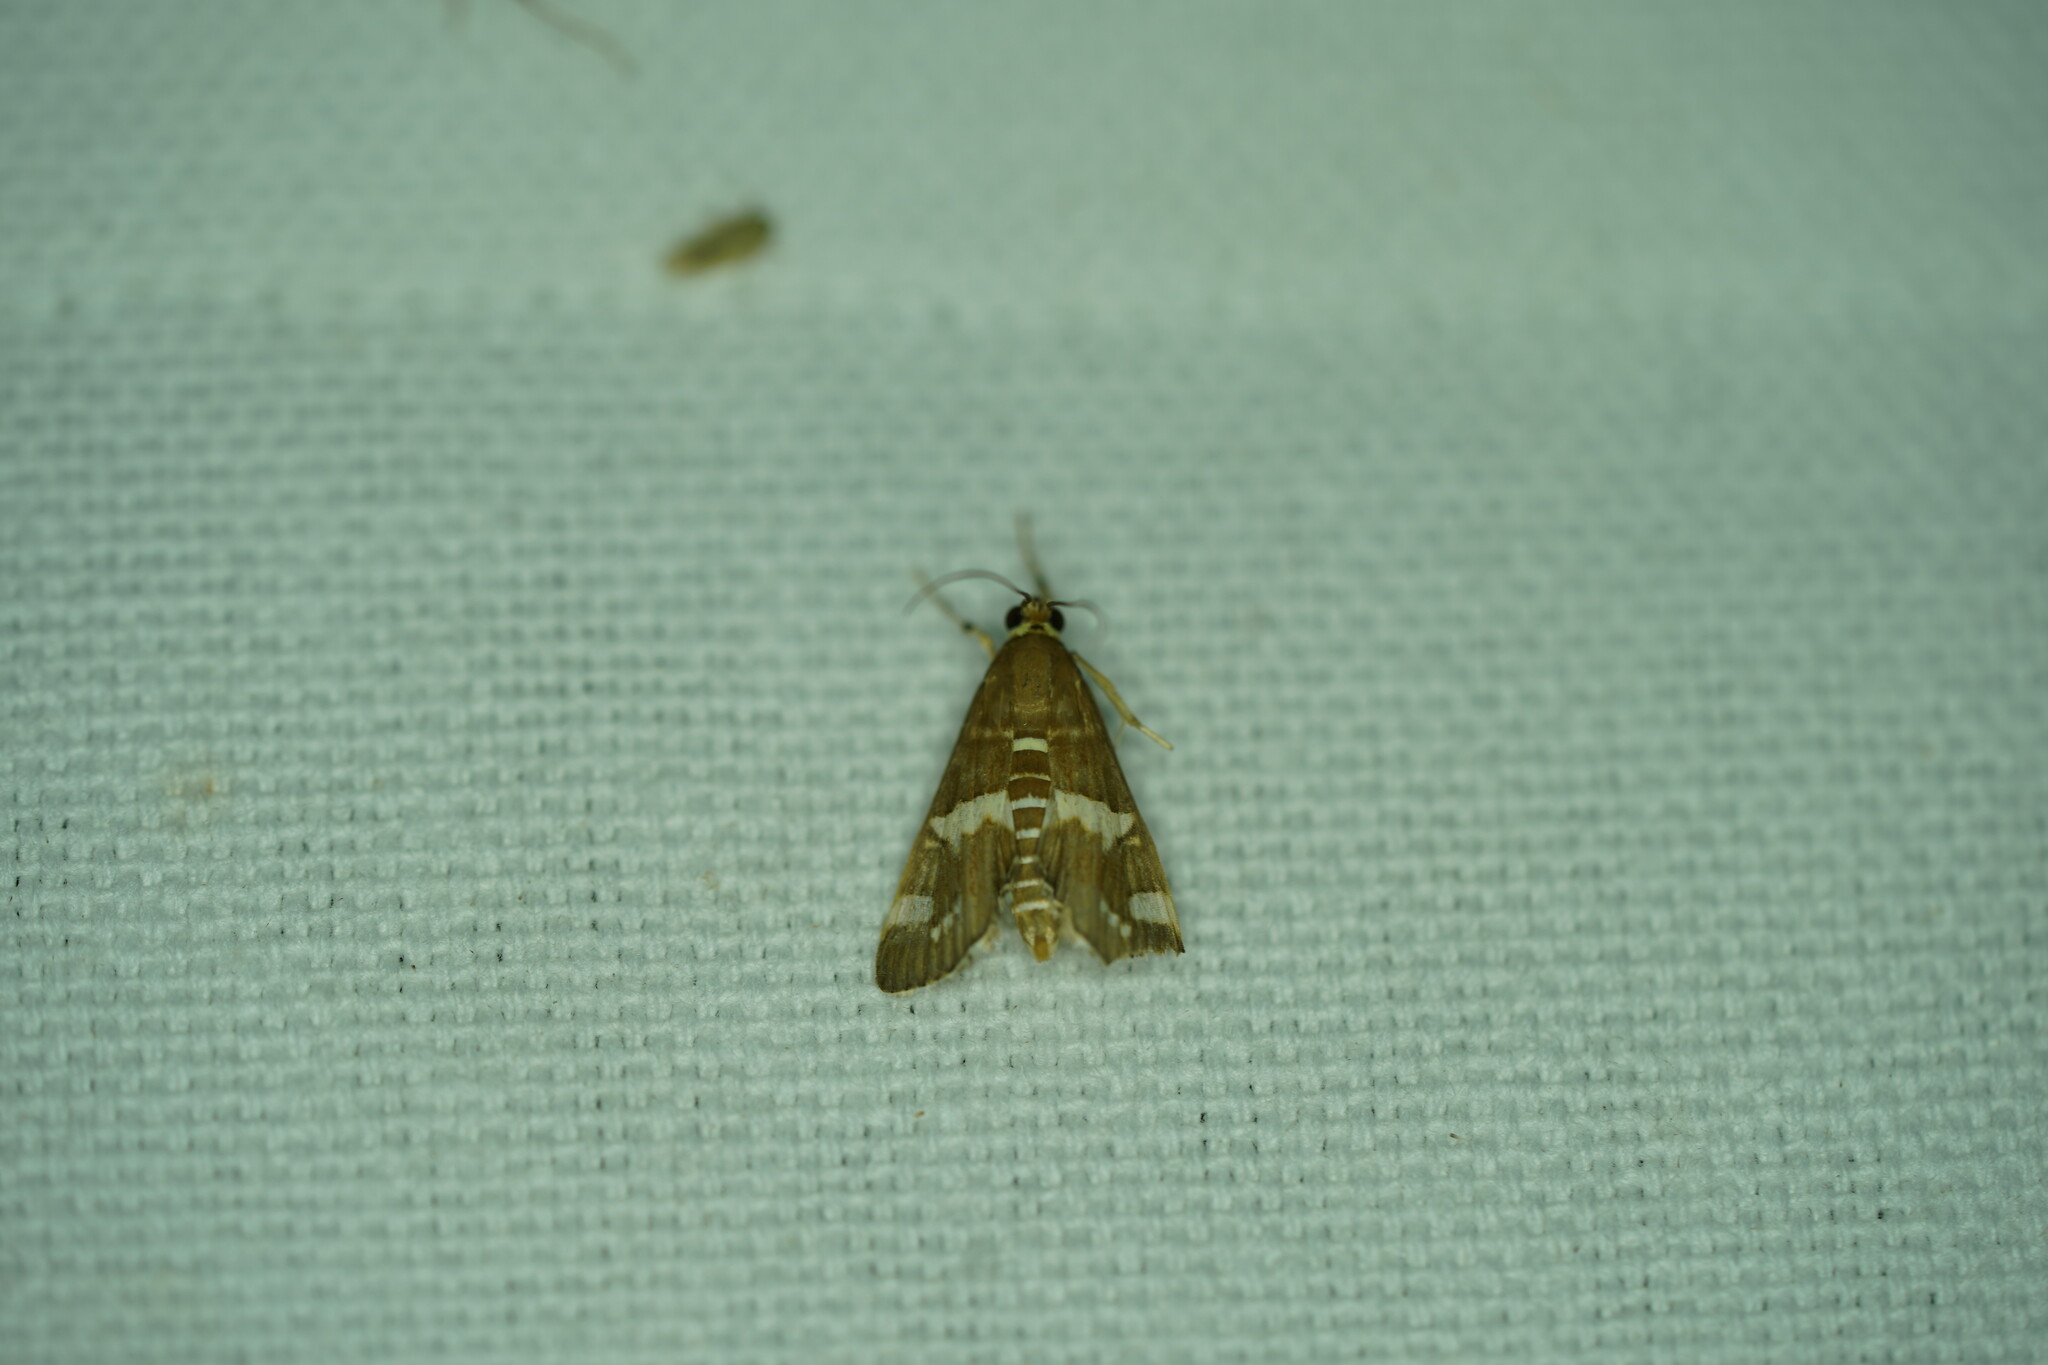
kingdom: Animalia
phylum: Arthropoda
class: Insecta
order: Lepidoptera
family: Crambidae
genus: Spoladea
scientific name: Spoladea recurvalis
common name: Beet webworm moth
